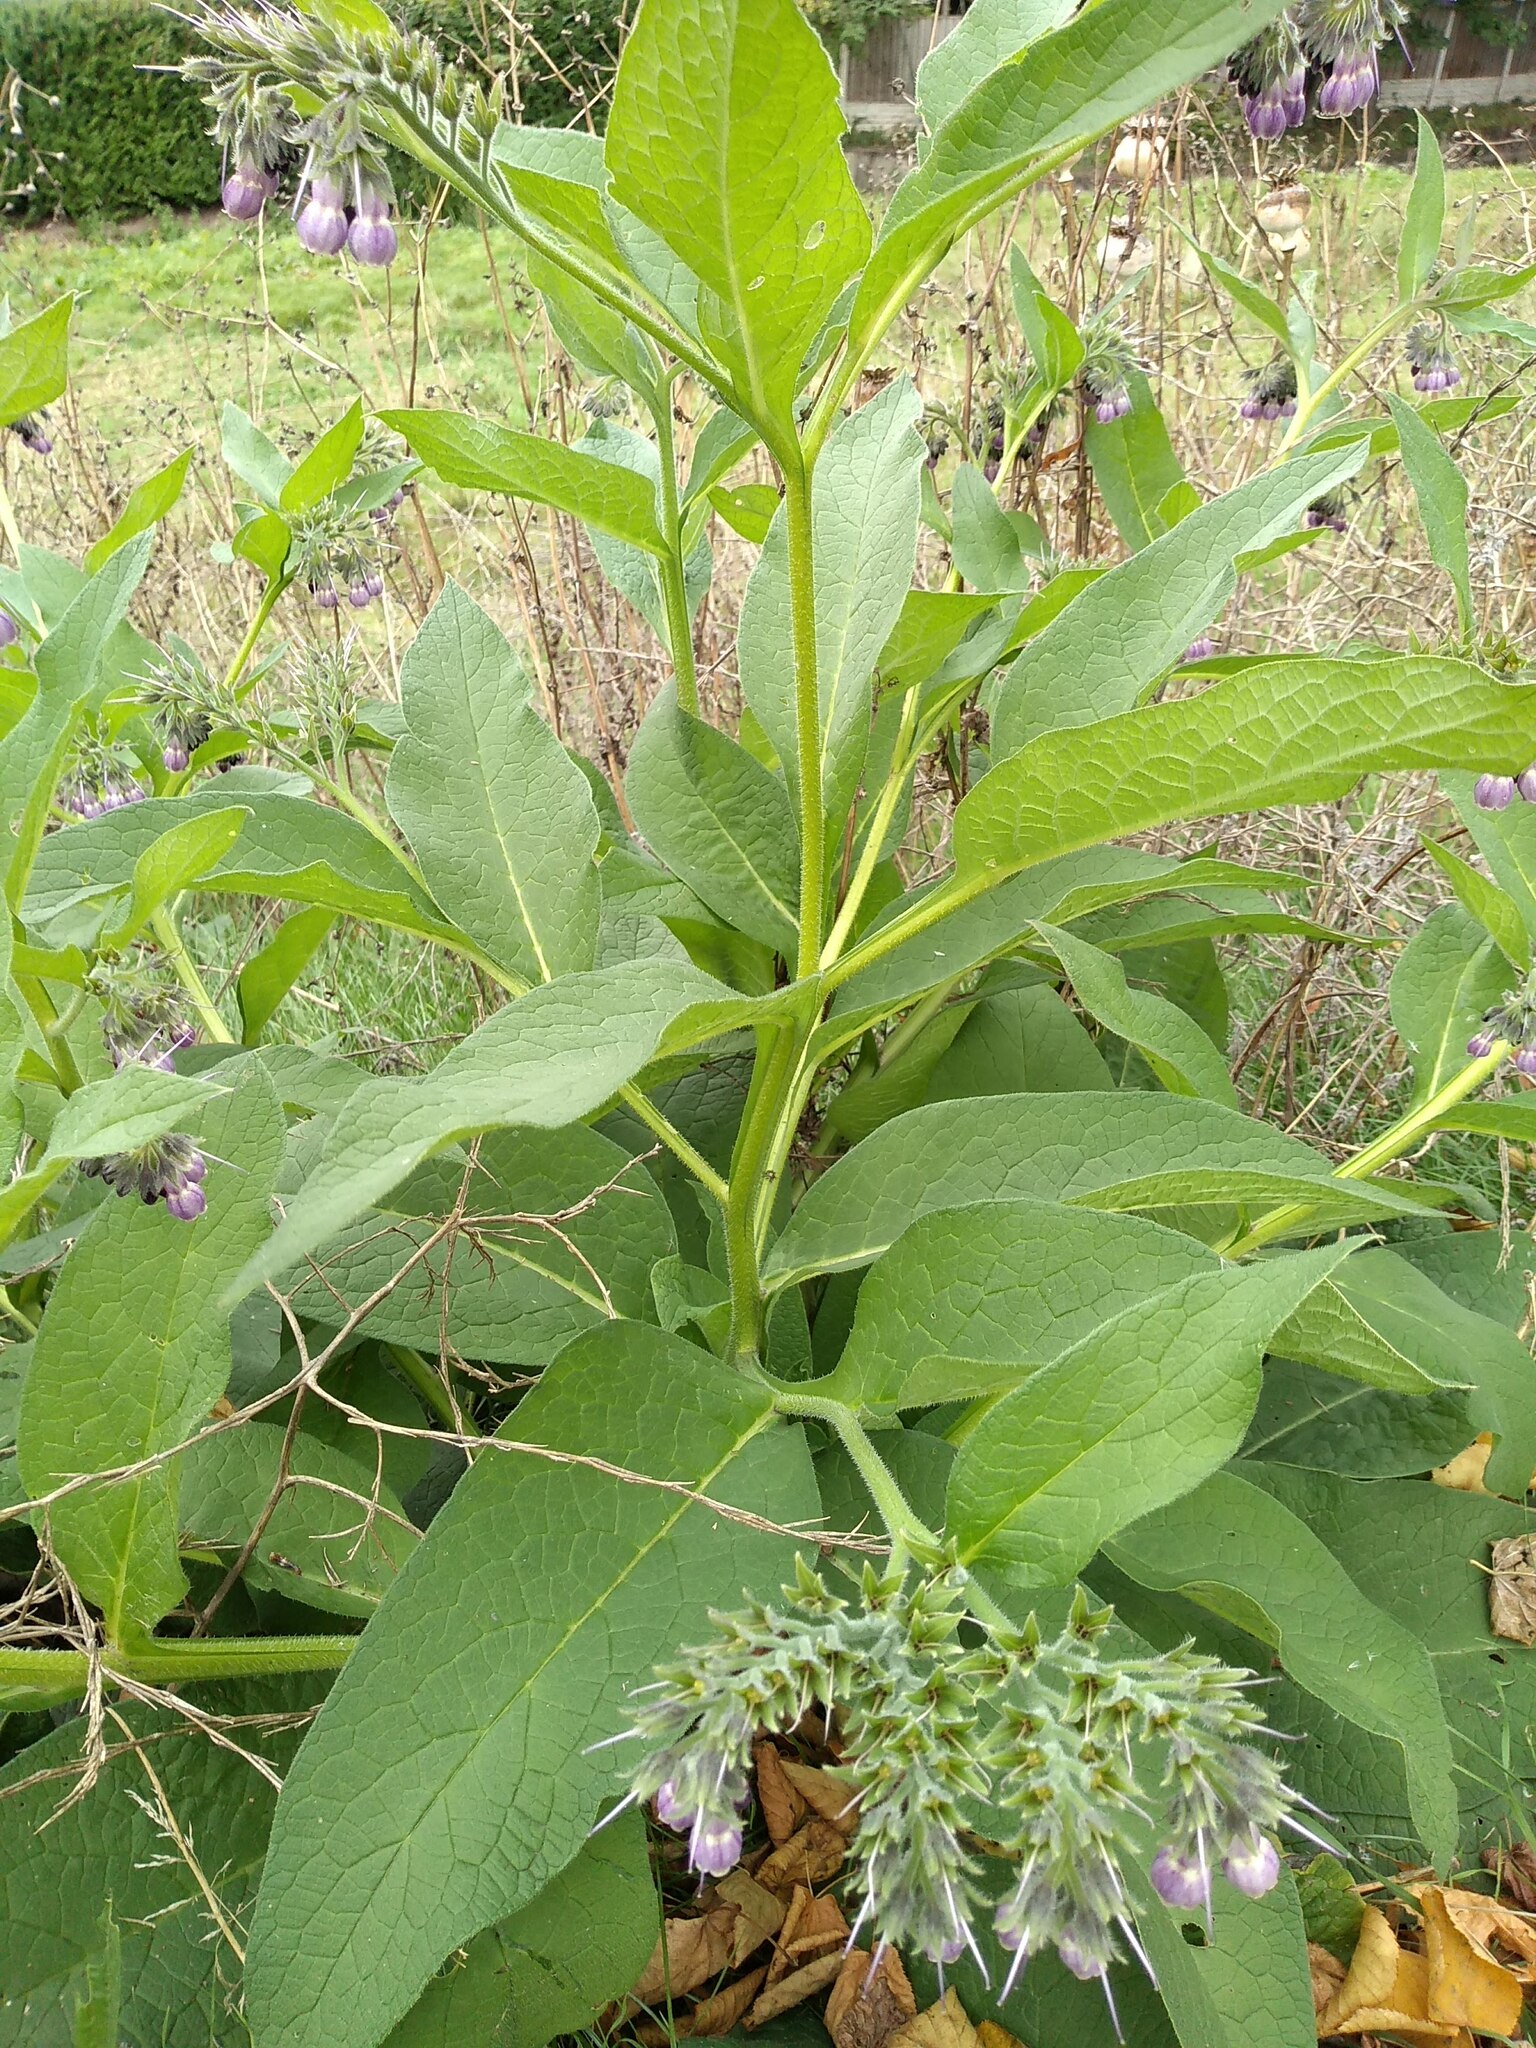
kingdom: Plantae
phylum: Tracheophyta
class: Magnoliopsida
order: Boraginales
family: Boraginaceae
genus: Symphytum
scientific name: Symphytum officinale
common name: Common comfrey
